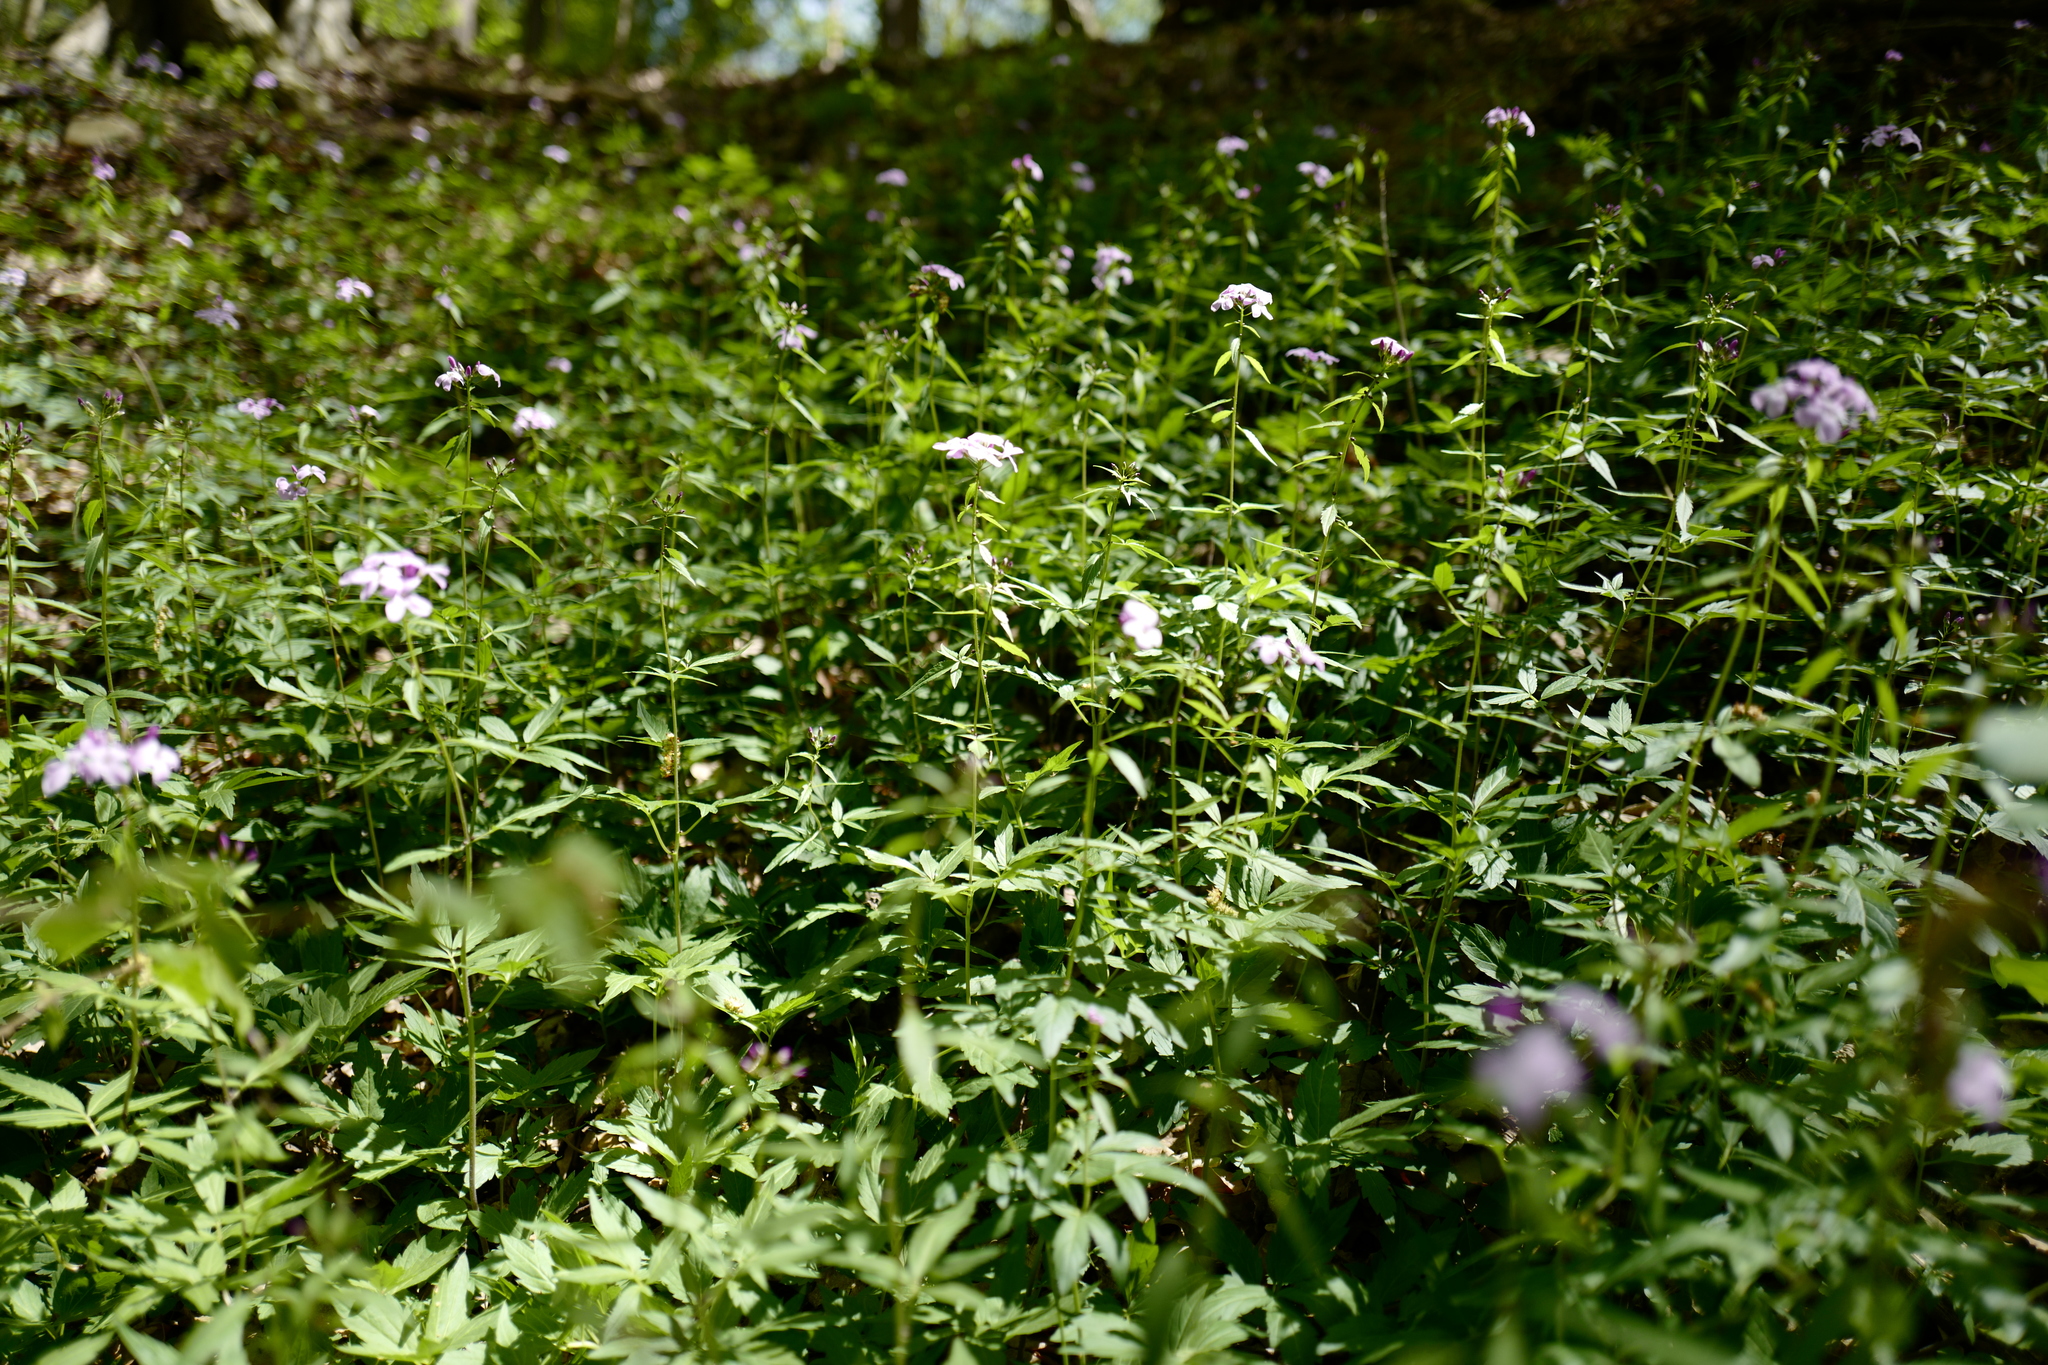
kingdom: Plantae
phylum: Tracheophyta
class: Magnoliopsida
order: Brassicales
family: Brassicaceae
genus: Cardamine
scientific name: Cardamine bulbifera
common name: Coralroot bittercress
